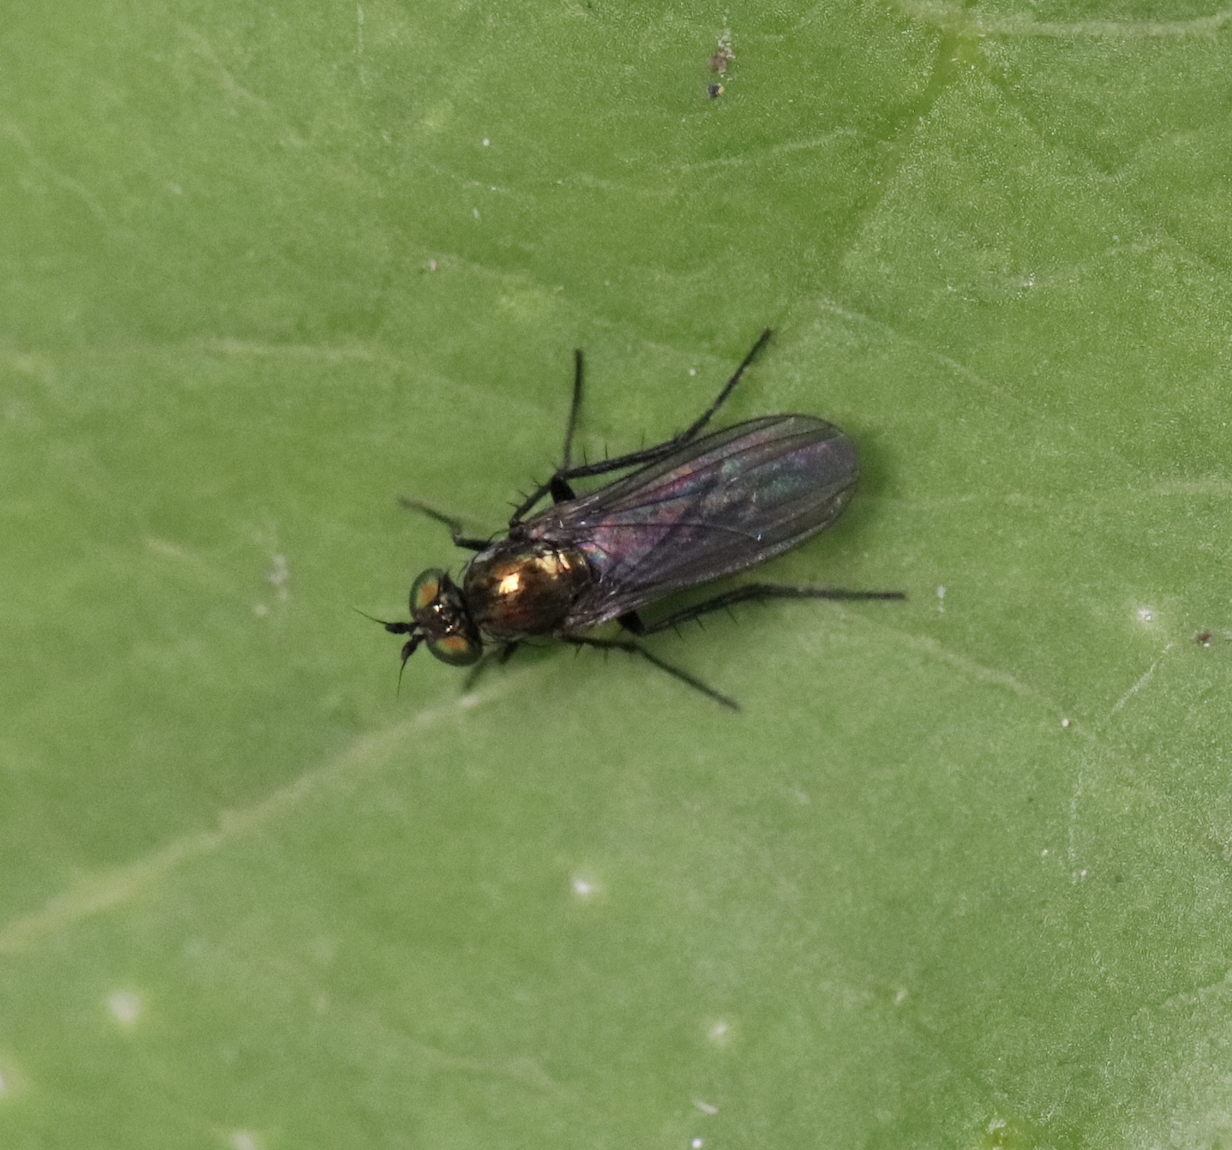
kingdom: Animalia
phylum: Arthropoda
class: Insecta
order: Diptera
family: Dolichopodidae
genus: Hercostomus
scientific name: Hercostomus unicolor
